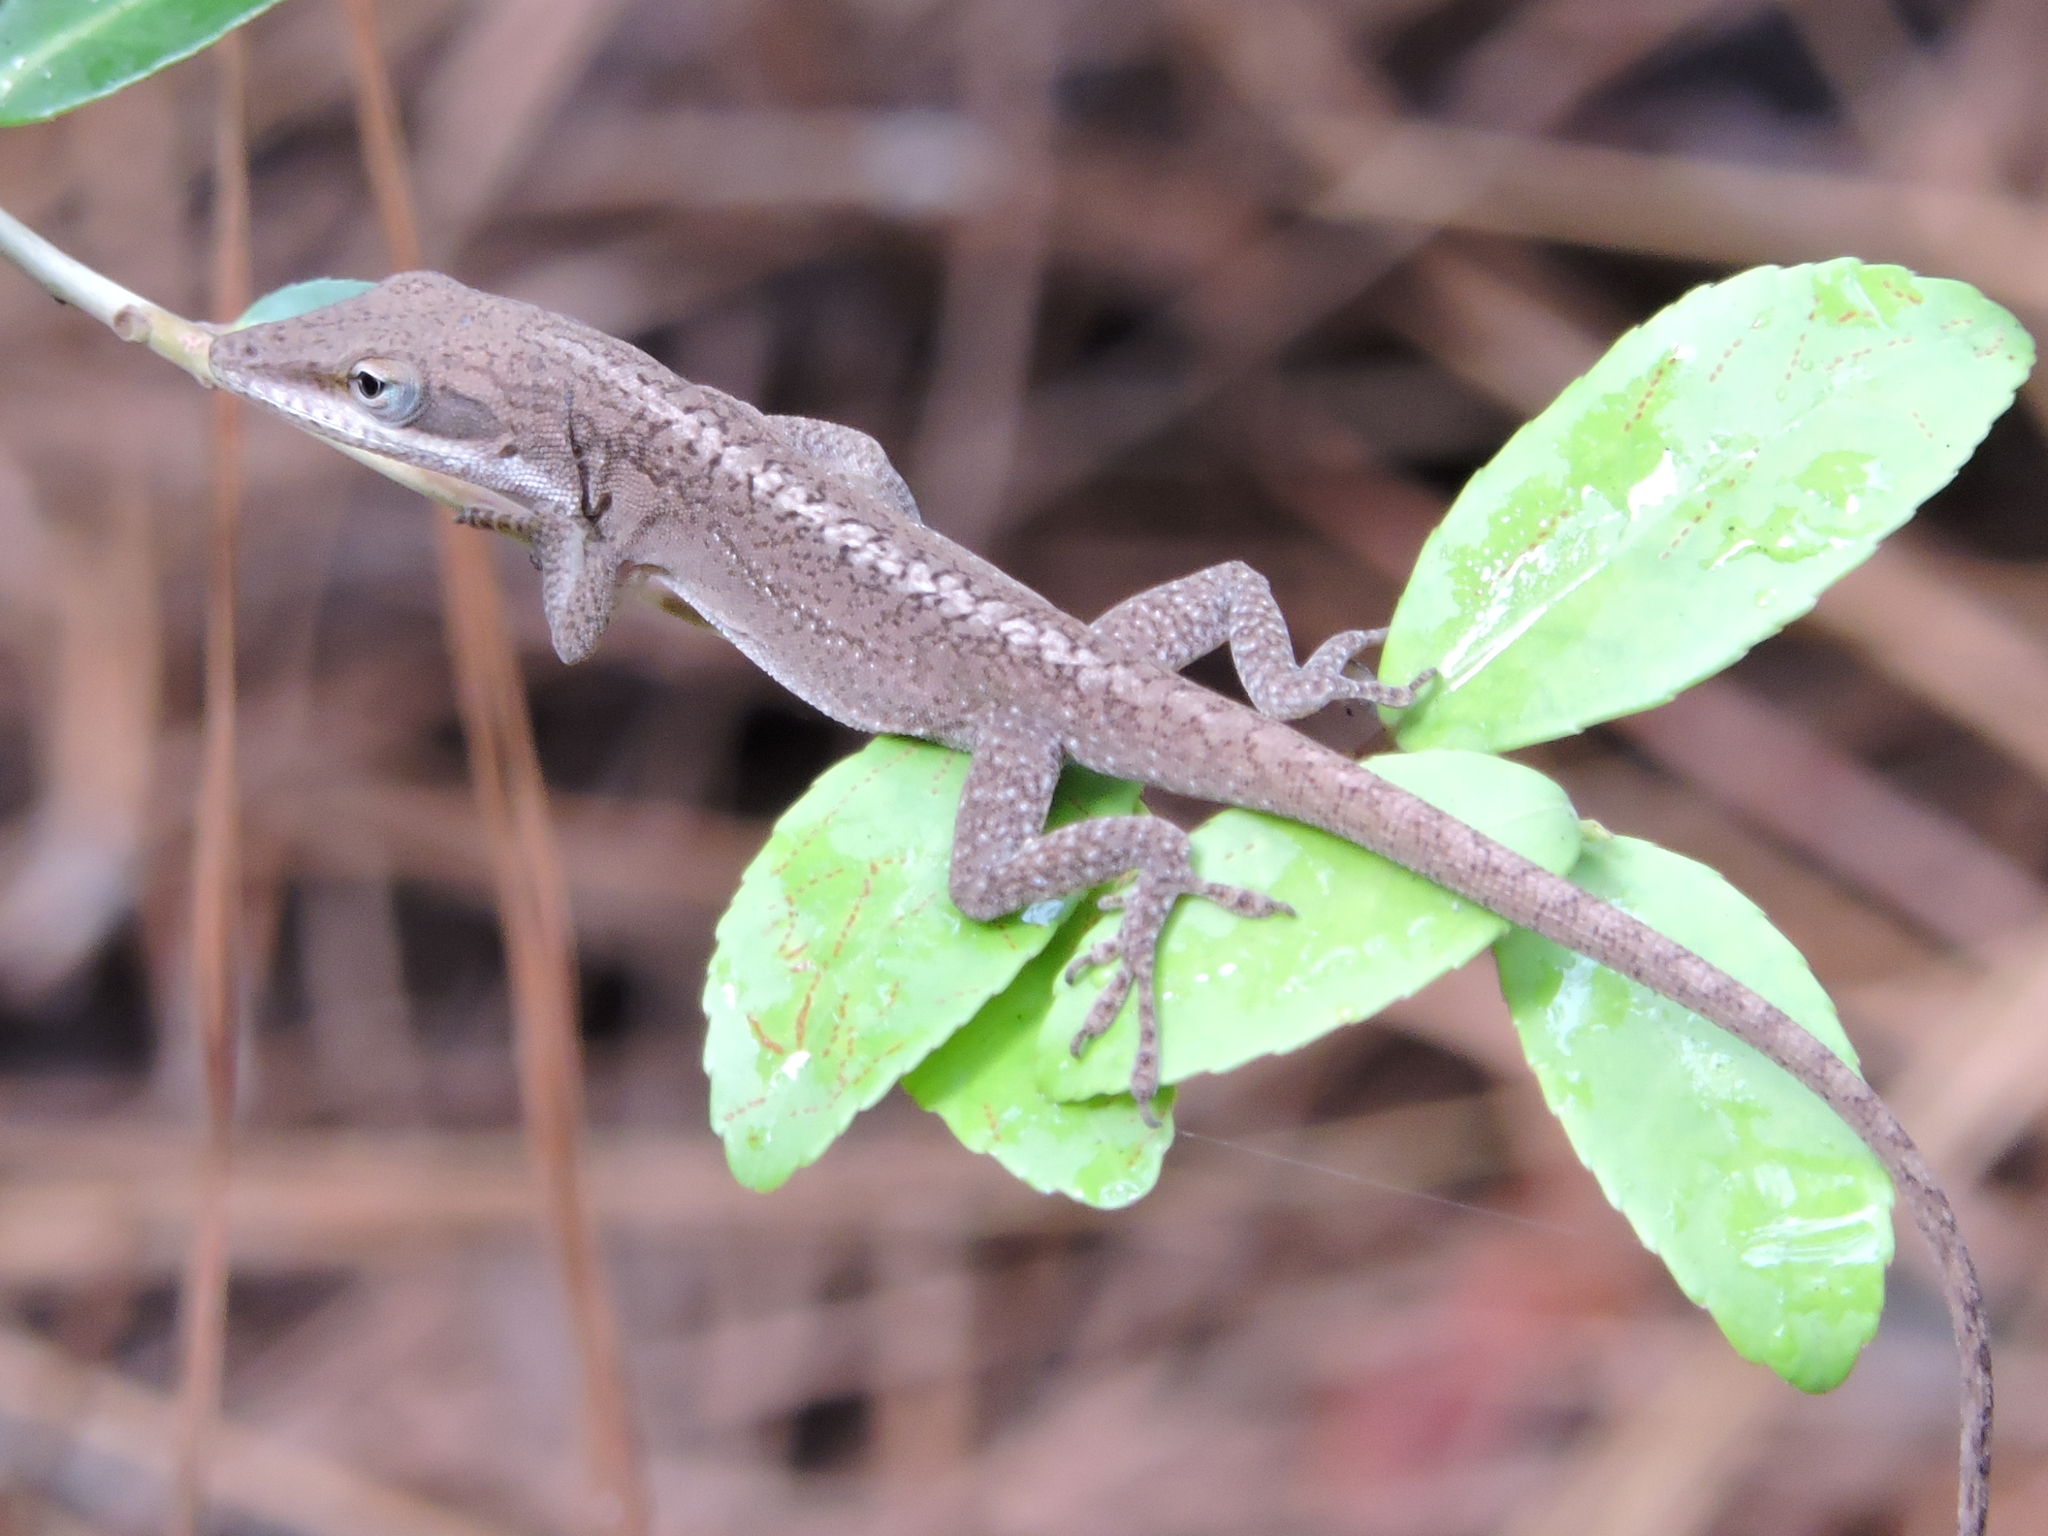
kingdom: Animalia
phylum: Chordata
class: Squamata
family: Dactyloidae
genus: Anolis
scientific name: Anolis carolinensis
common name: Green anole
